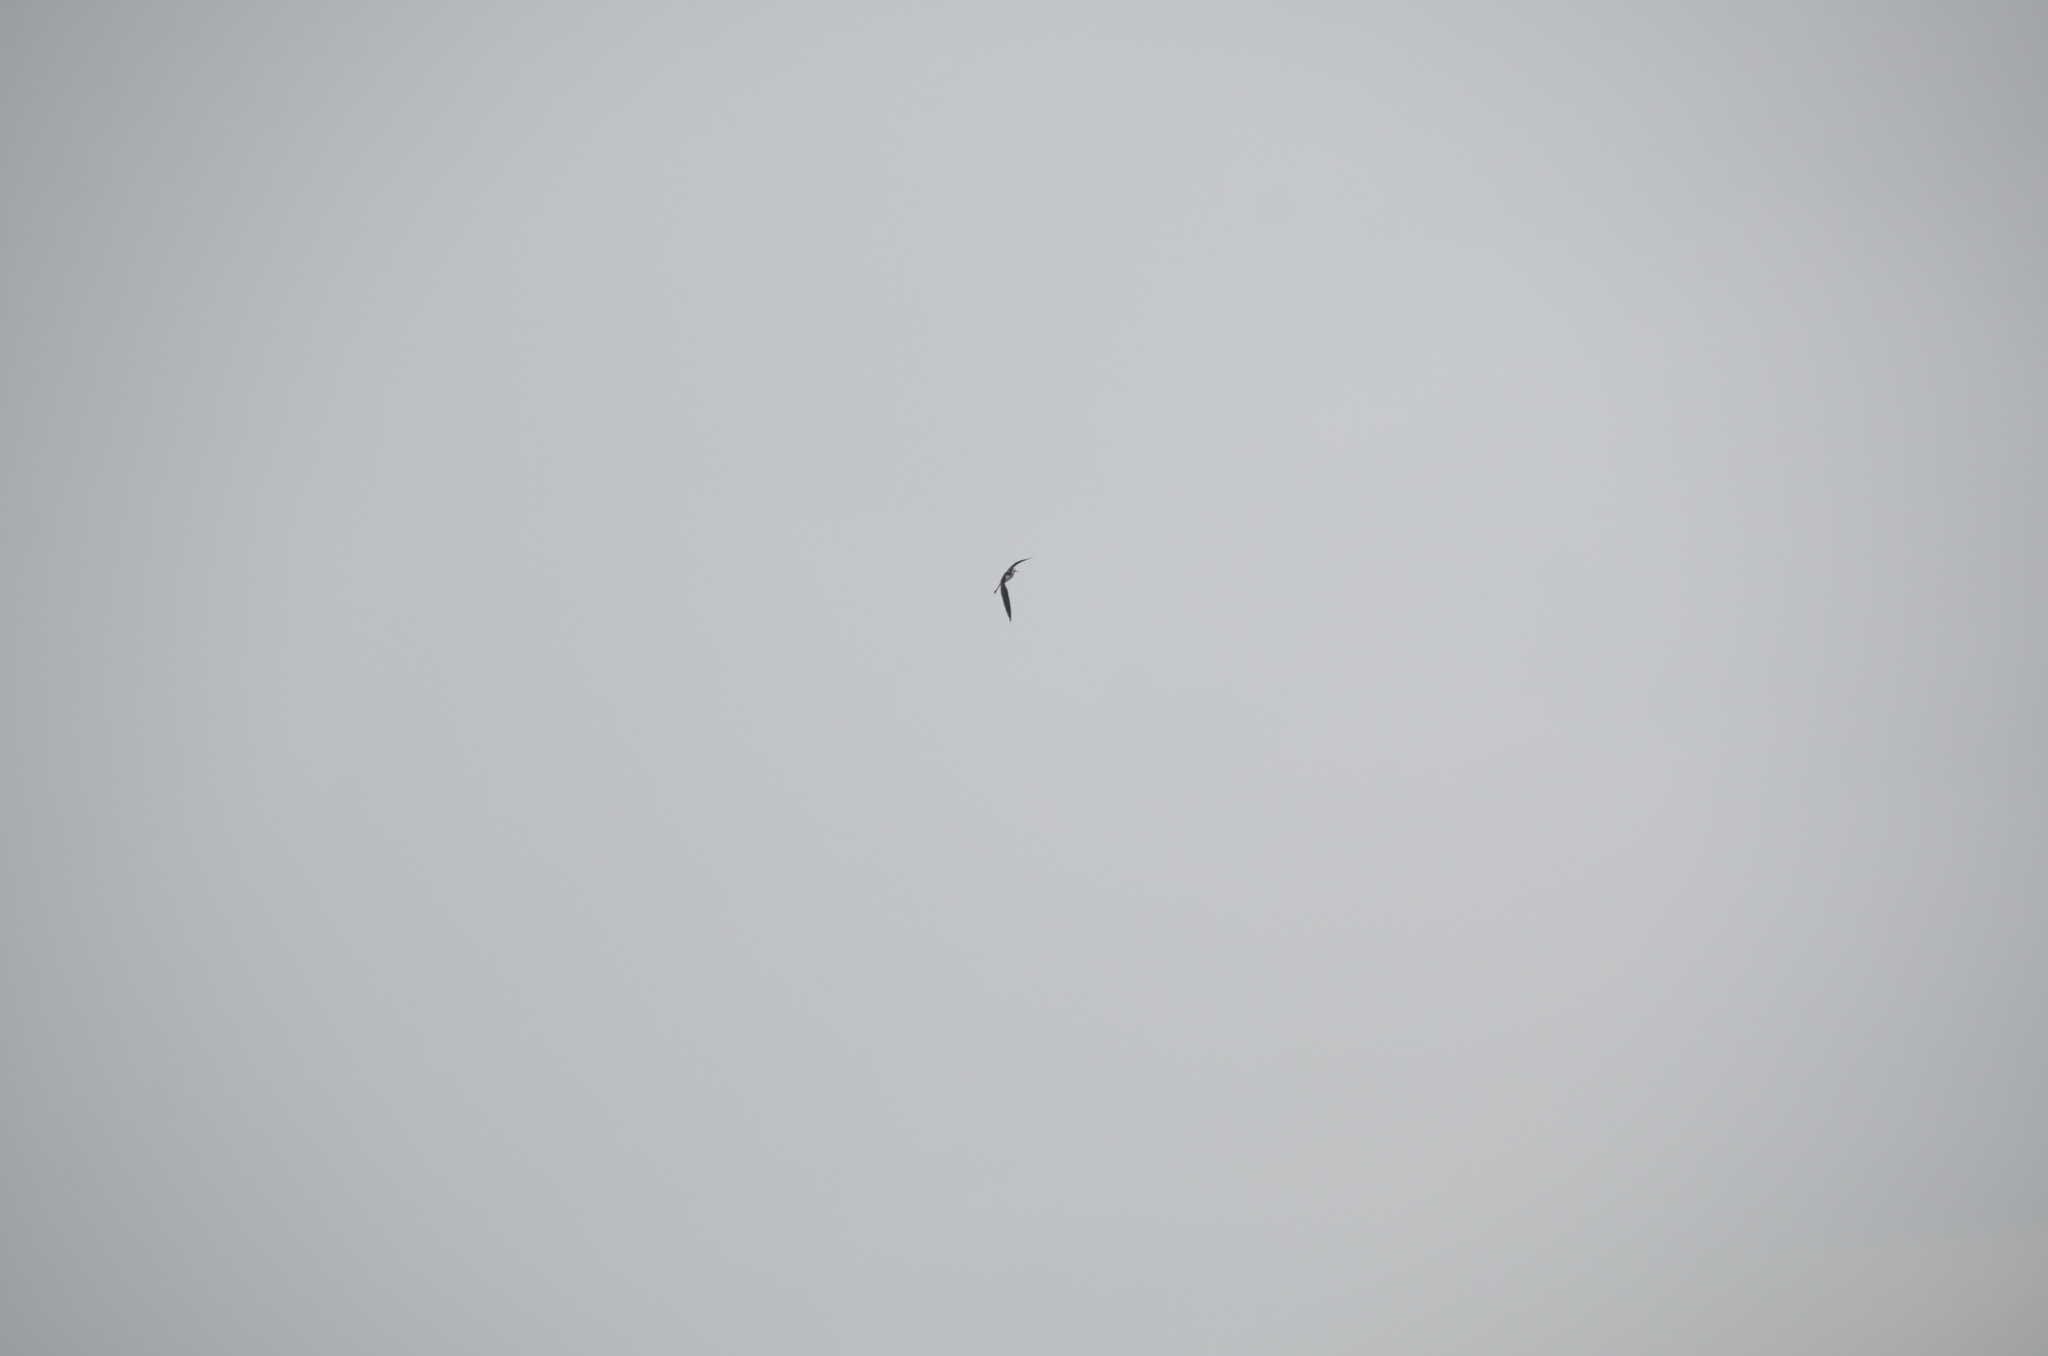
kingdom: Animalia
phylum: Chordata
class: Aves
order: Charadriiformes
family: Recurvirostridae
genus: Himantopus
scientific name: Himantopus mexicanus
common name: Black-necked stilt
